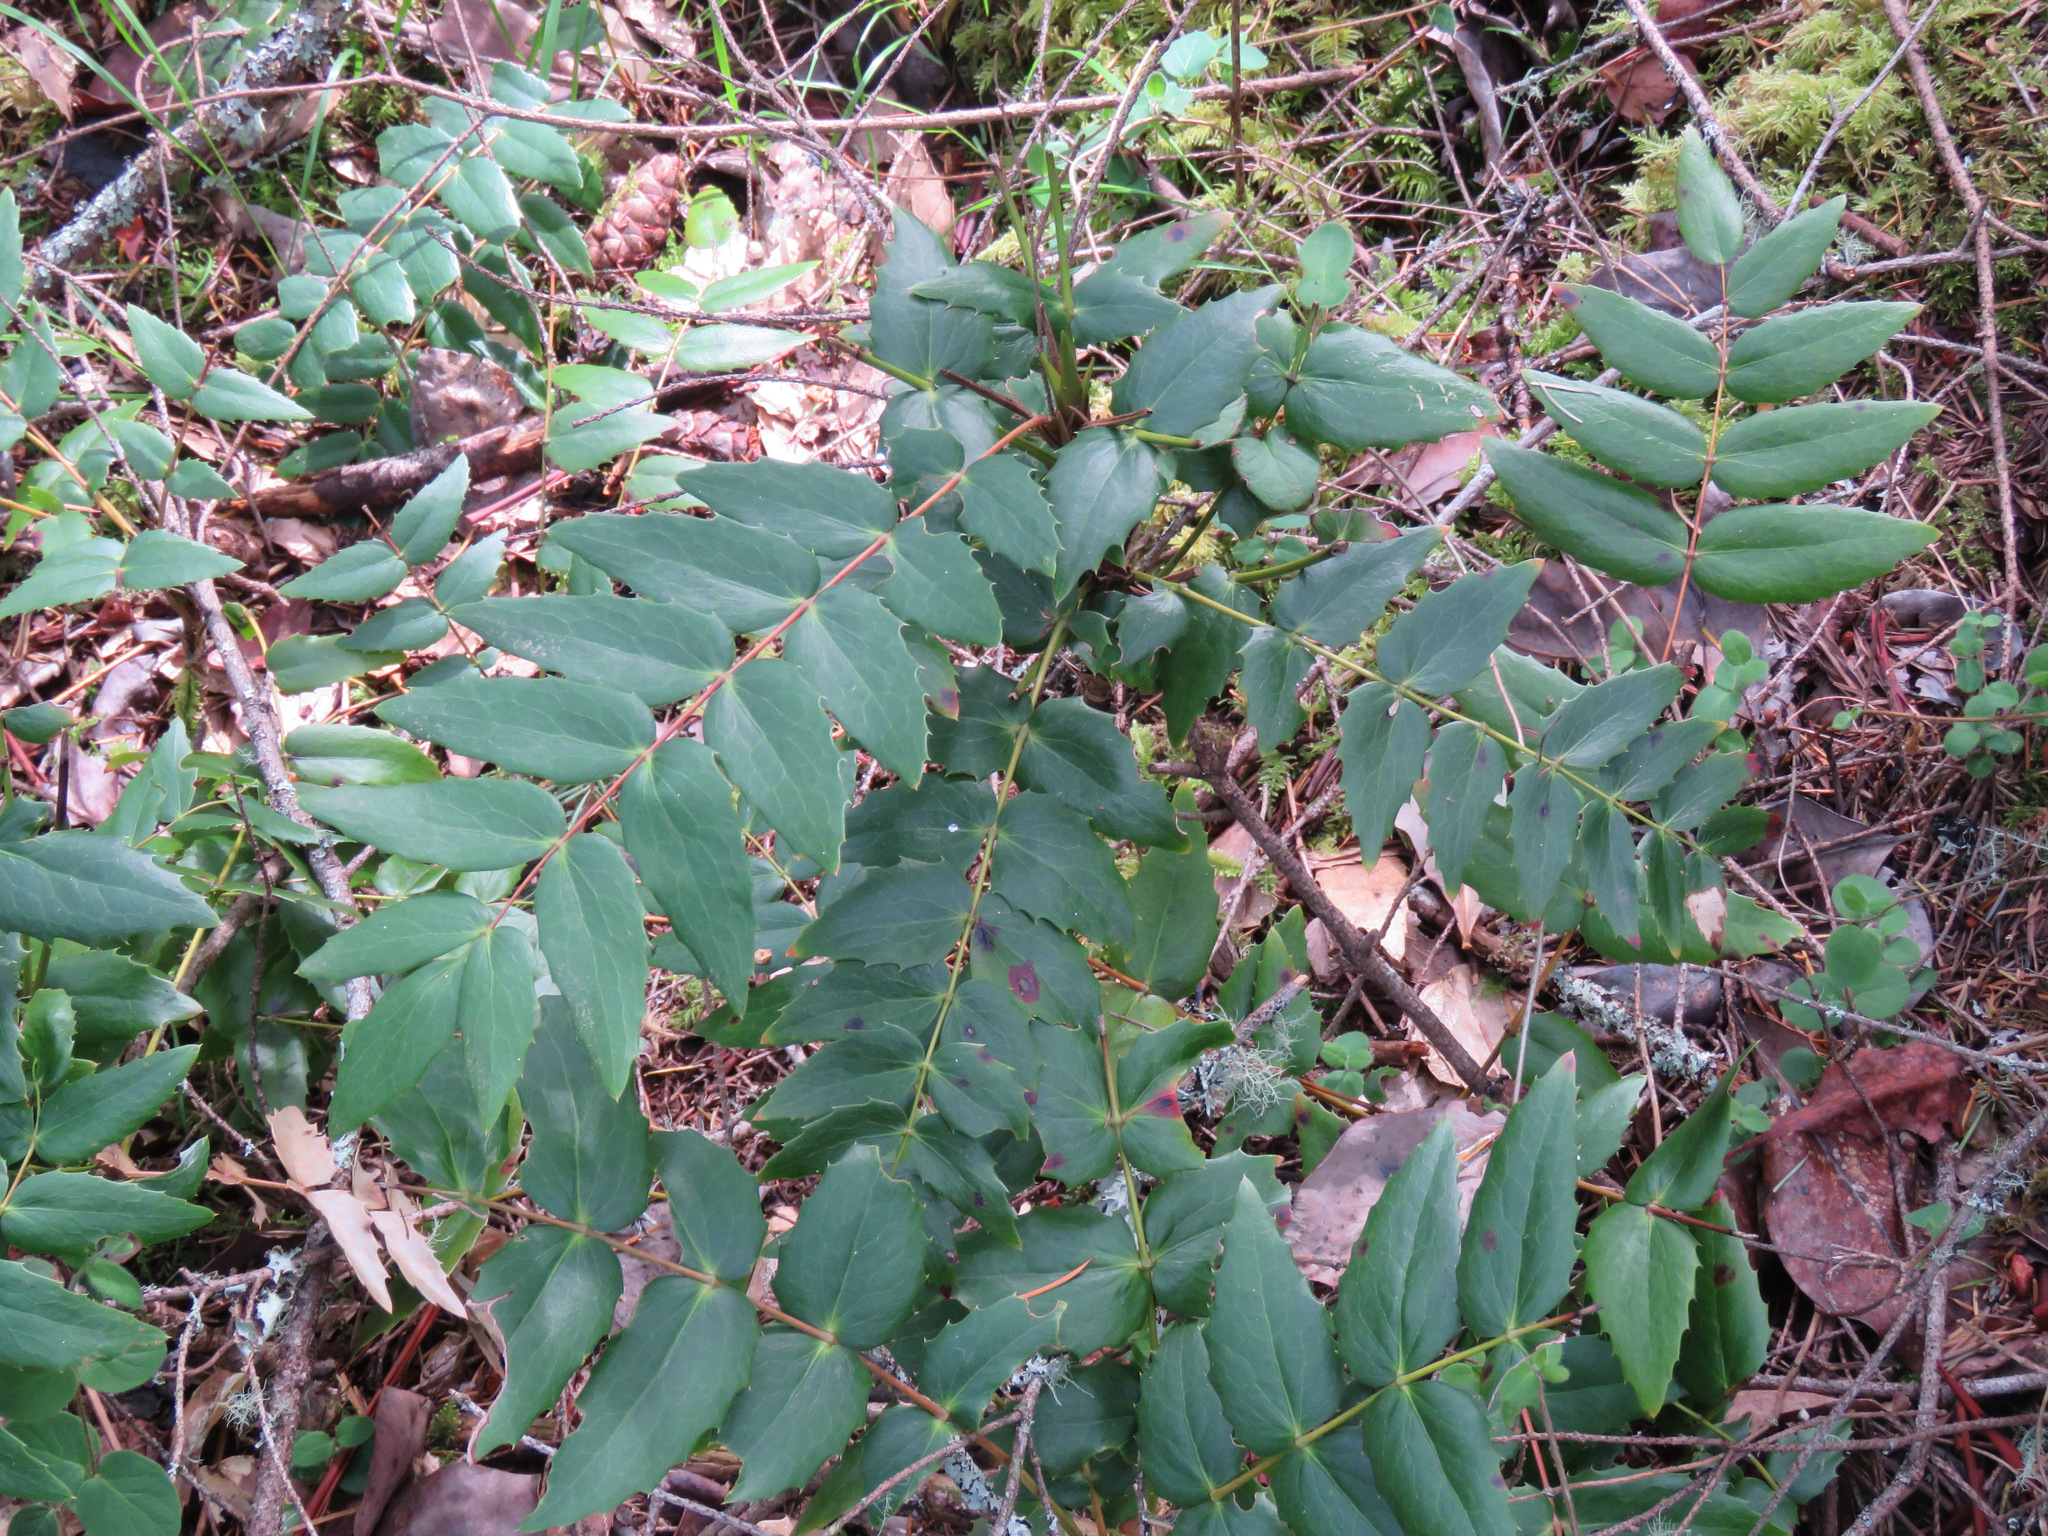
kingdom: Plantae
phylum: Tracheophyta
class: Magnoliopsida
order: Ranunculales
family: Berberidaceae
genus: Mahonia
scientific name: Mahonia nervosa
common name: Cascade oregon-grape
